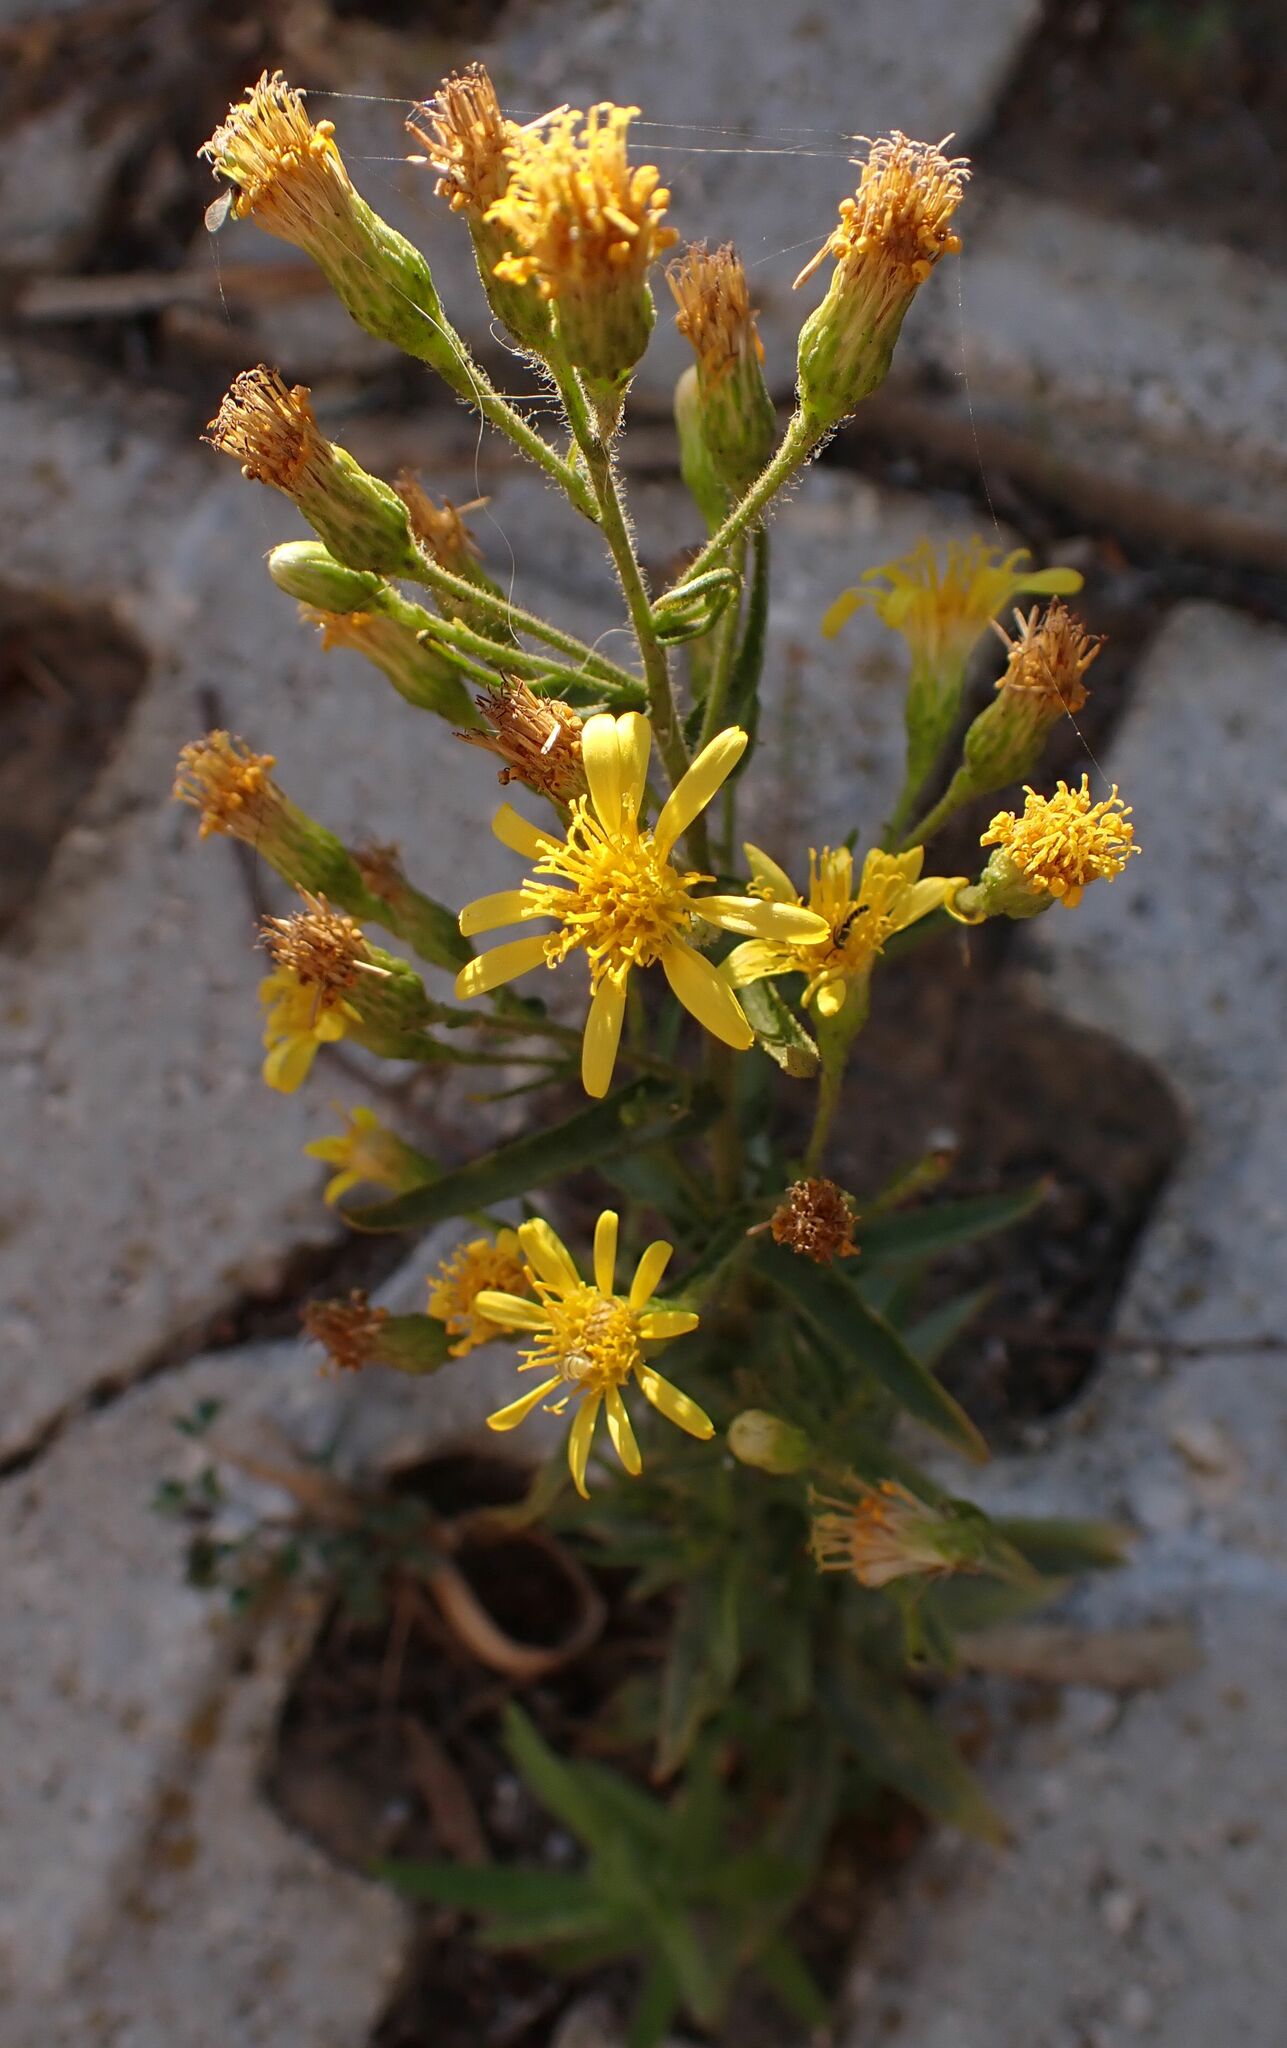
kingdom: Plantae
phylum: Tracheophyta
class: Magnoliopsida
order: Asterales
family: Asteraceae
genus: Dittrichia
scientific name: Dittrichia viscosa
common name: Woody fleabane
